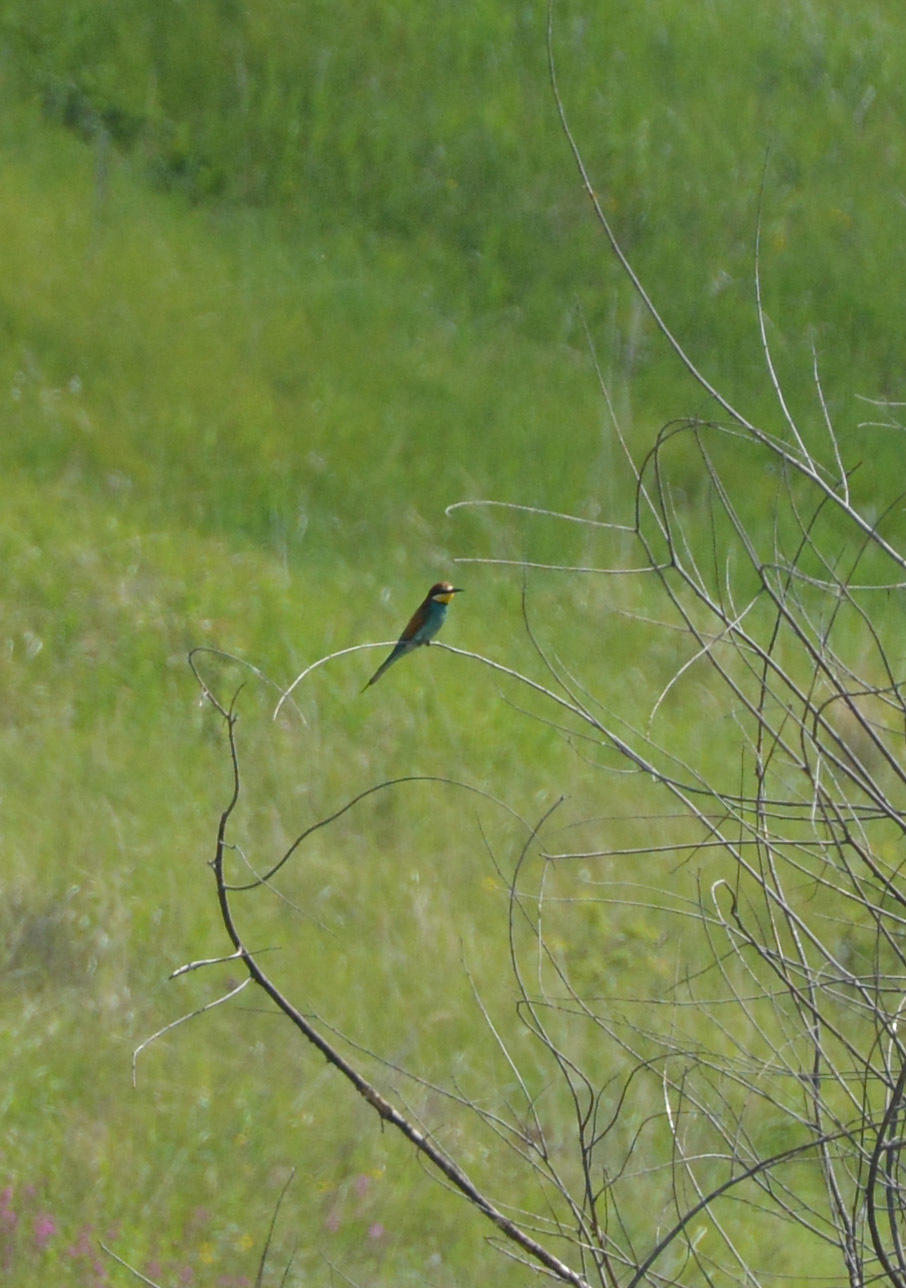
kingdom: Animalia
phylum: Chordata
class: Aves
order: Coraciiformes
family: Meropidae
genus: Merops
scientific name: Merops apiaster
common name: European bee-eater
